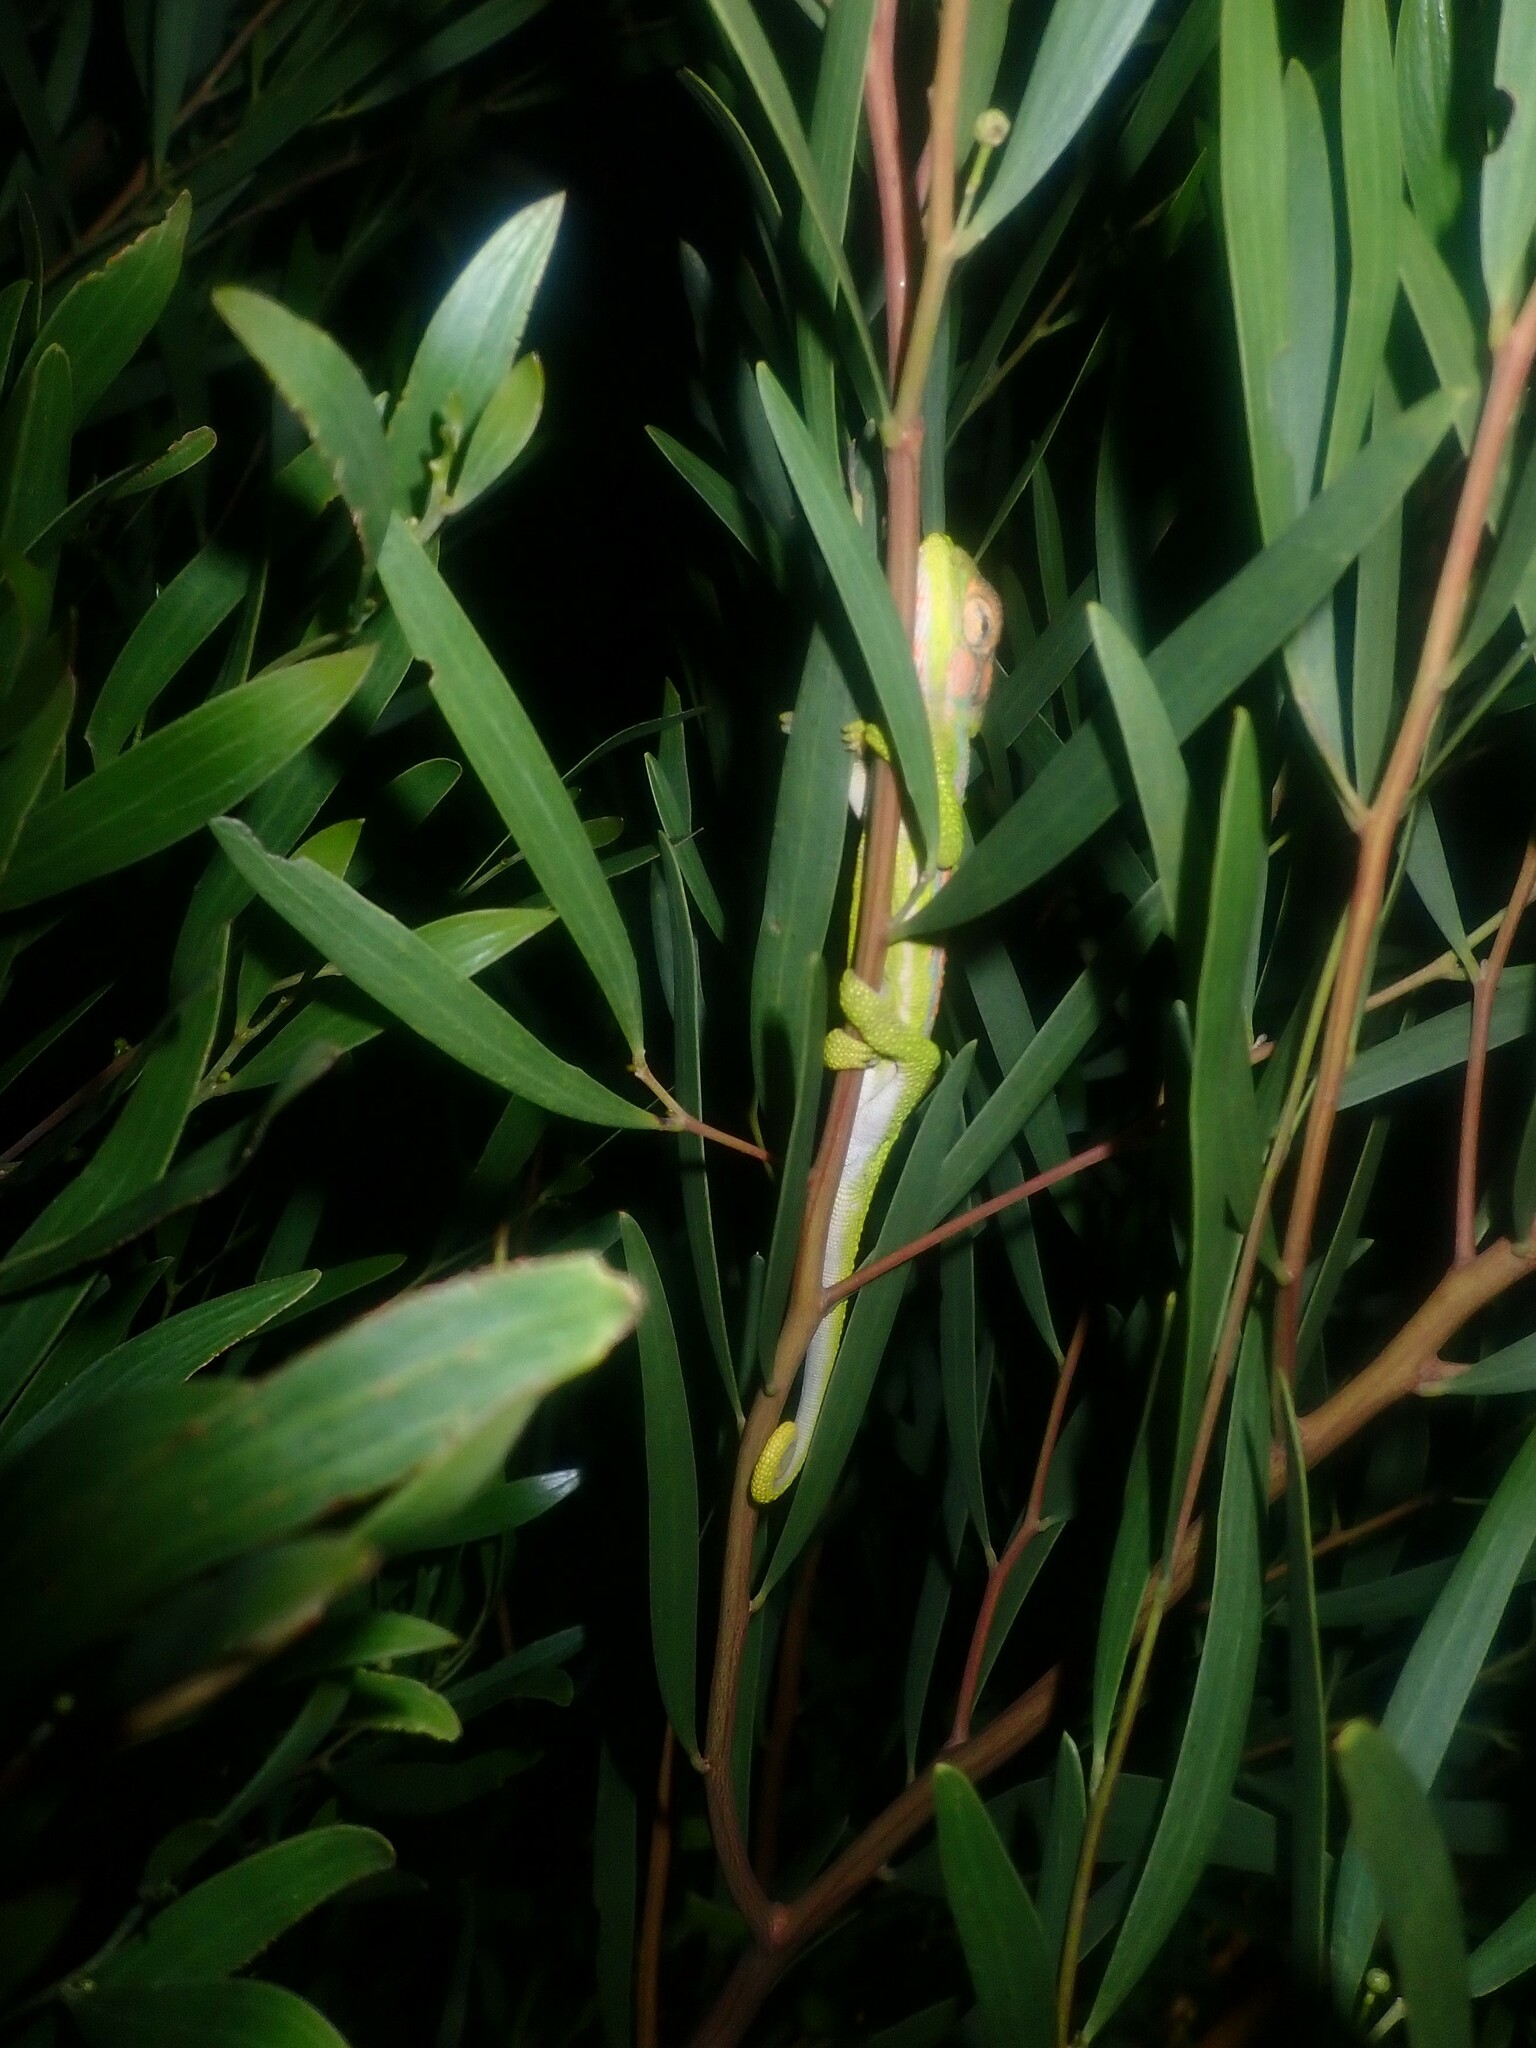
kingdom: Animalia
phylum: Chordata
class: Squamata
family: Chamaeleonidae
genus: Bradypodion
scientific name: Bradypodion pumilum
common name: Cape dwarf chameleon
